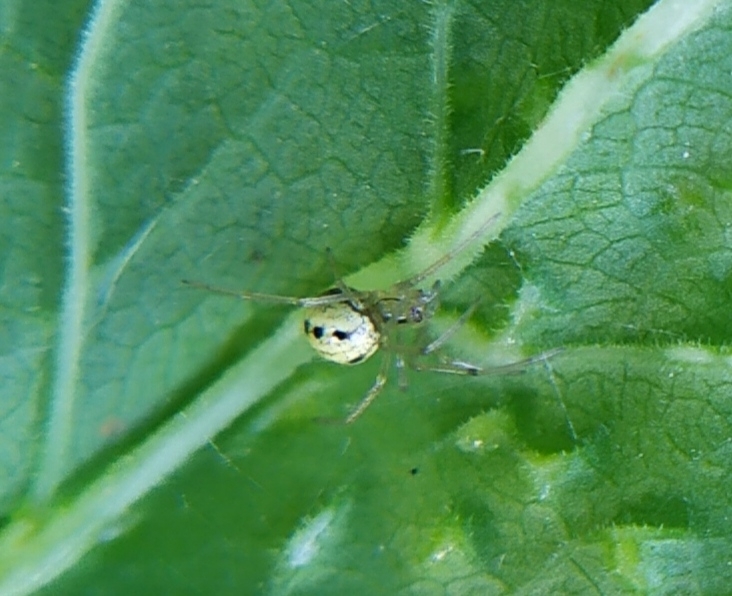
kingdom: Animalia
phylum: Arthropoda
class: Arachnida
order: Araneae
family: Theridiidae
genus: Enoplognatha
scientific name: Enoplognatha ovata
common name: Common candy-striped spider
